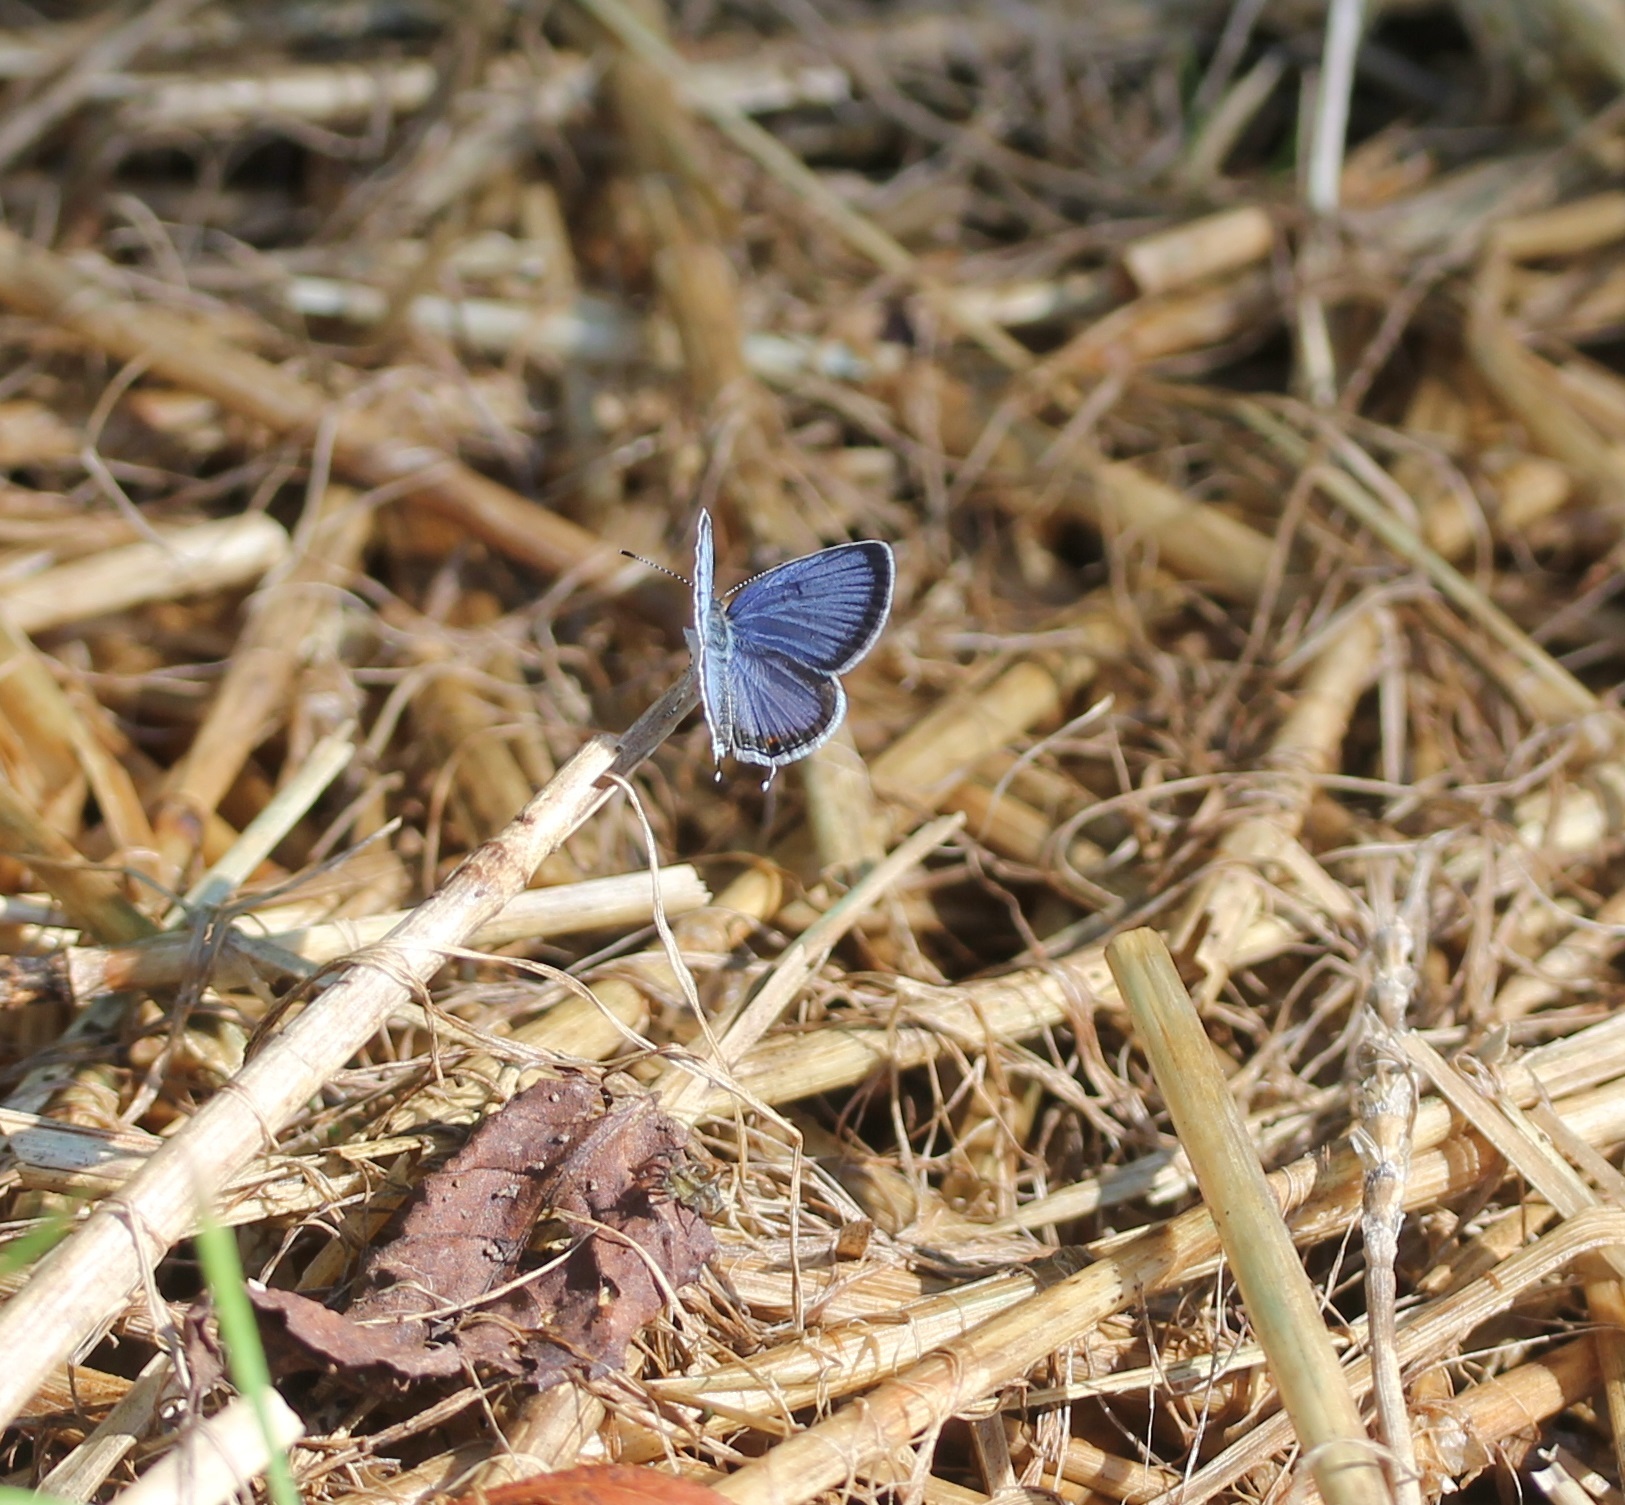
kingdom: Animalia
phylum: Arthropoda
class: Insecta
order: Lepidoptera
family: Lycaenidae
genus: Elkalyce
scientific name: Elkalyce comyntas
